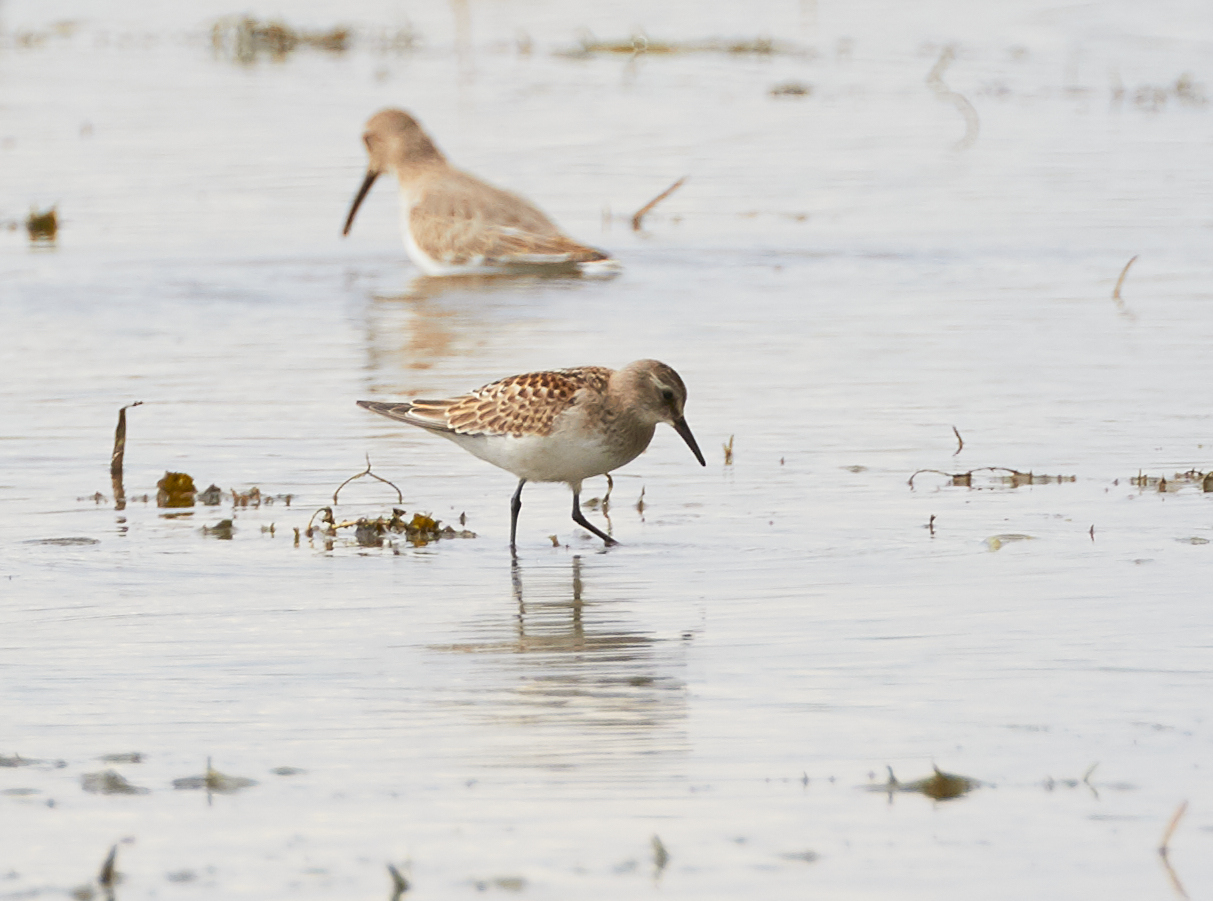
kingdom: Animalia
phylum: Chordata
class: Aves
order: Charadriiformes
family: Scolopacidae
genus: Calidris
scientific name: Calidris fuscicollis
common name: White-rumped sandpiper
